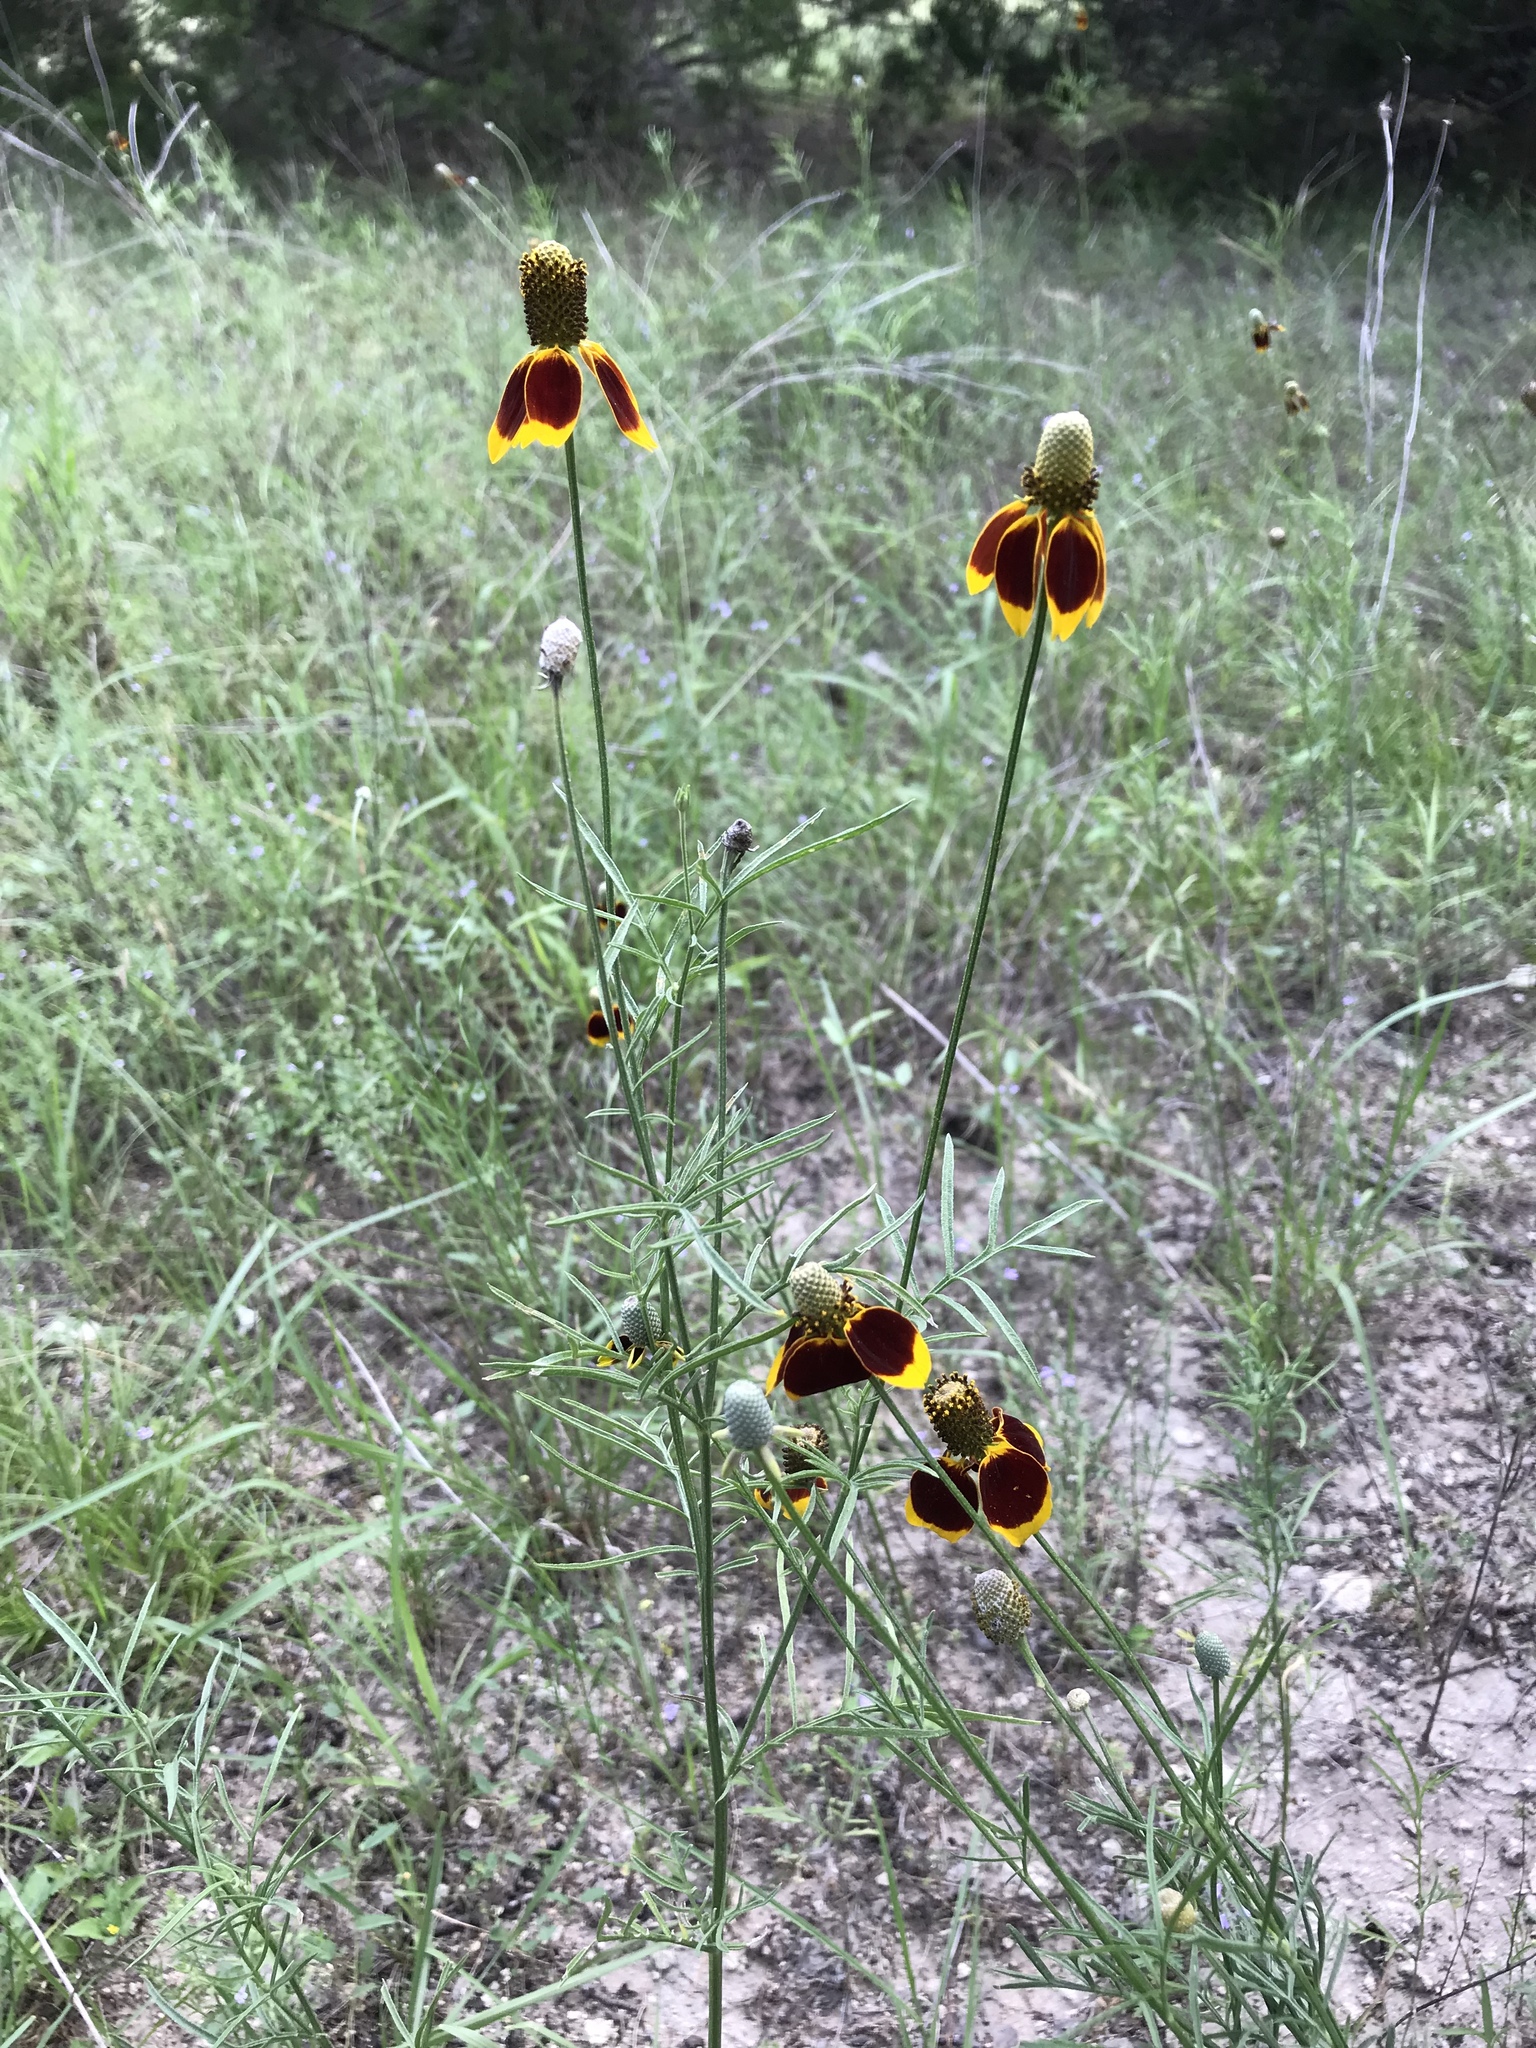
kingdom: Plantae
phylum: Tracheophyta
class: Magnoliopsida
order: Asterales
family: Asteraceae
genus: Ratibida
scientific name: Ratibida columnifera
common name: Prairie coneflower
